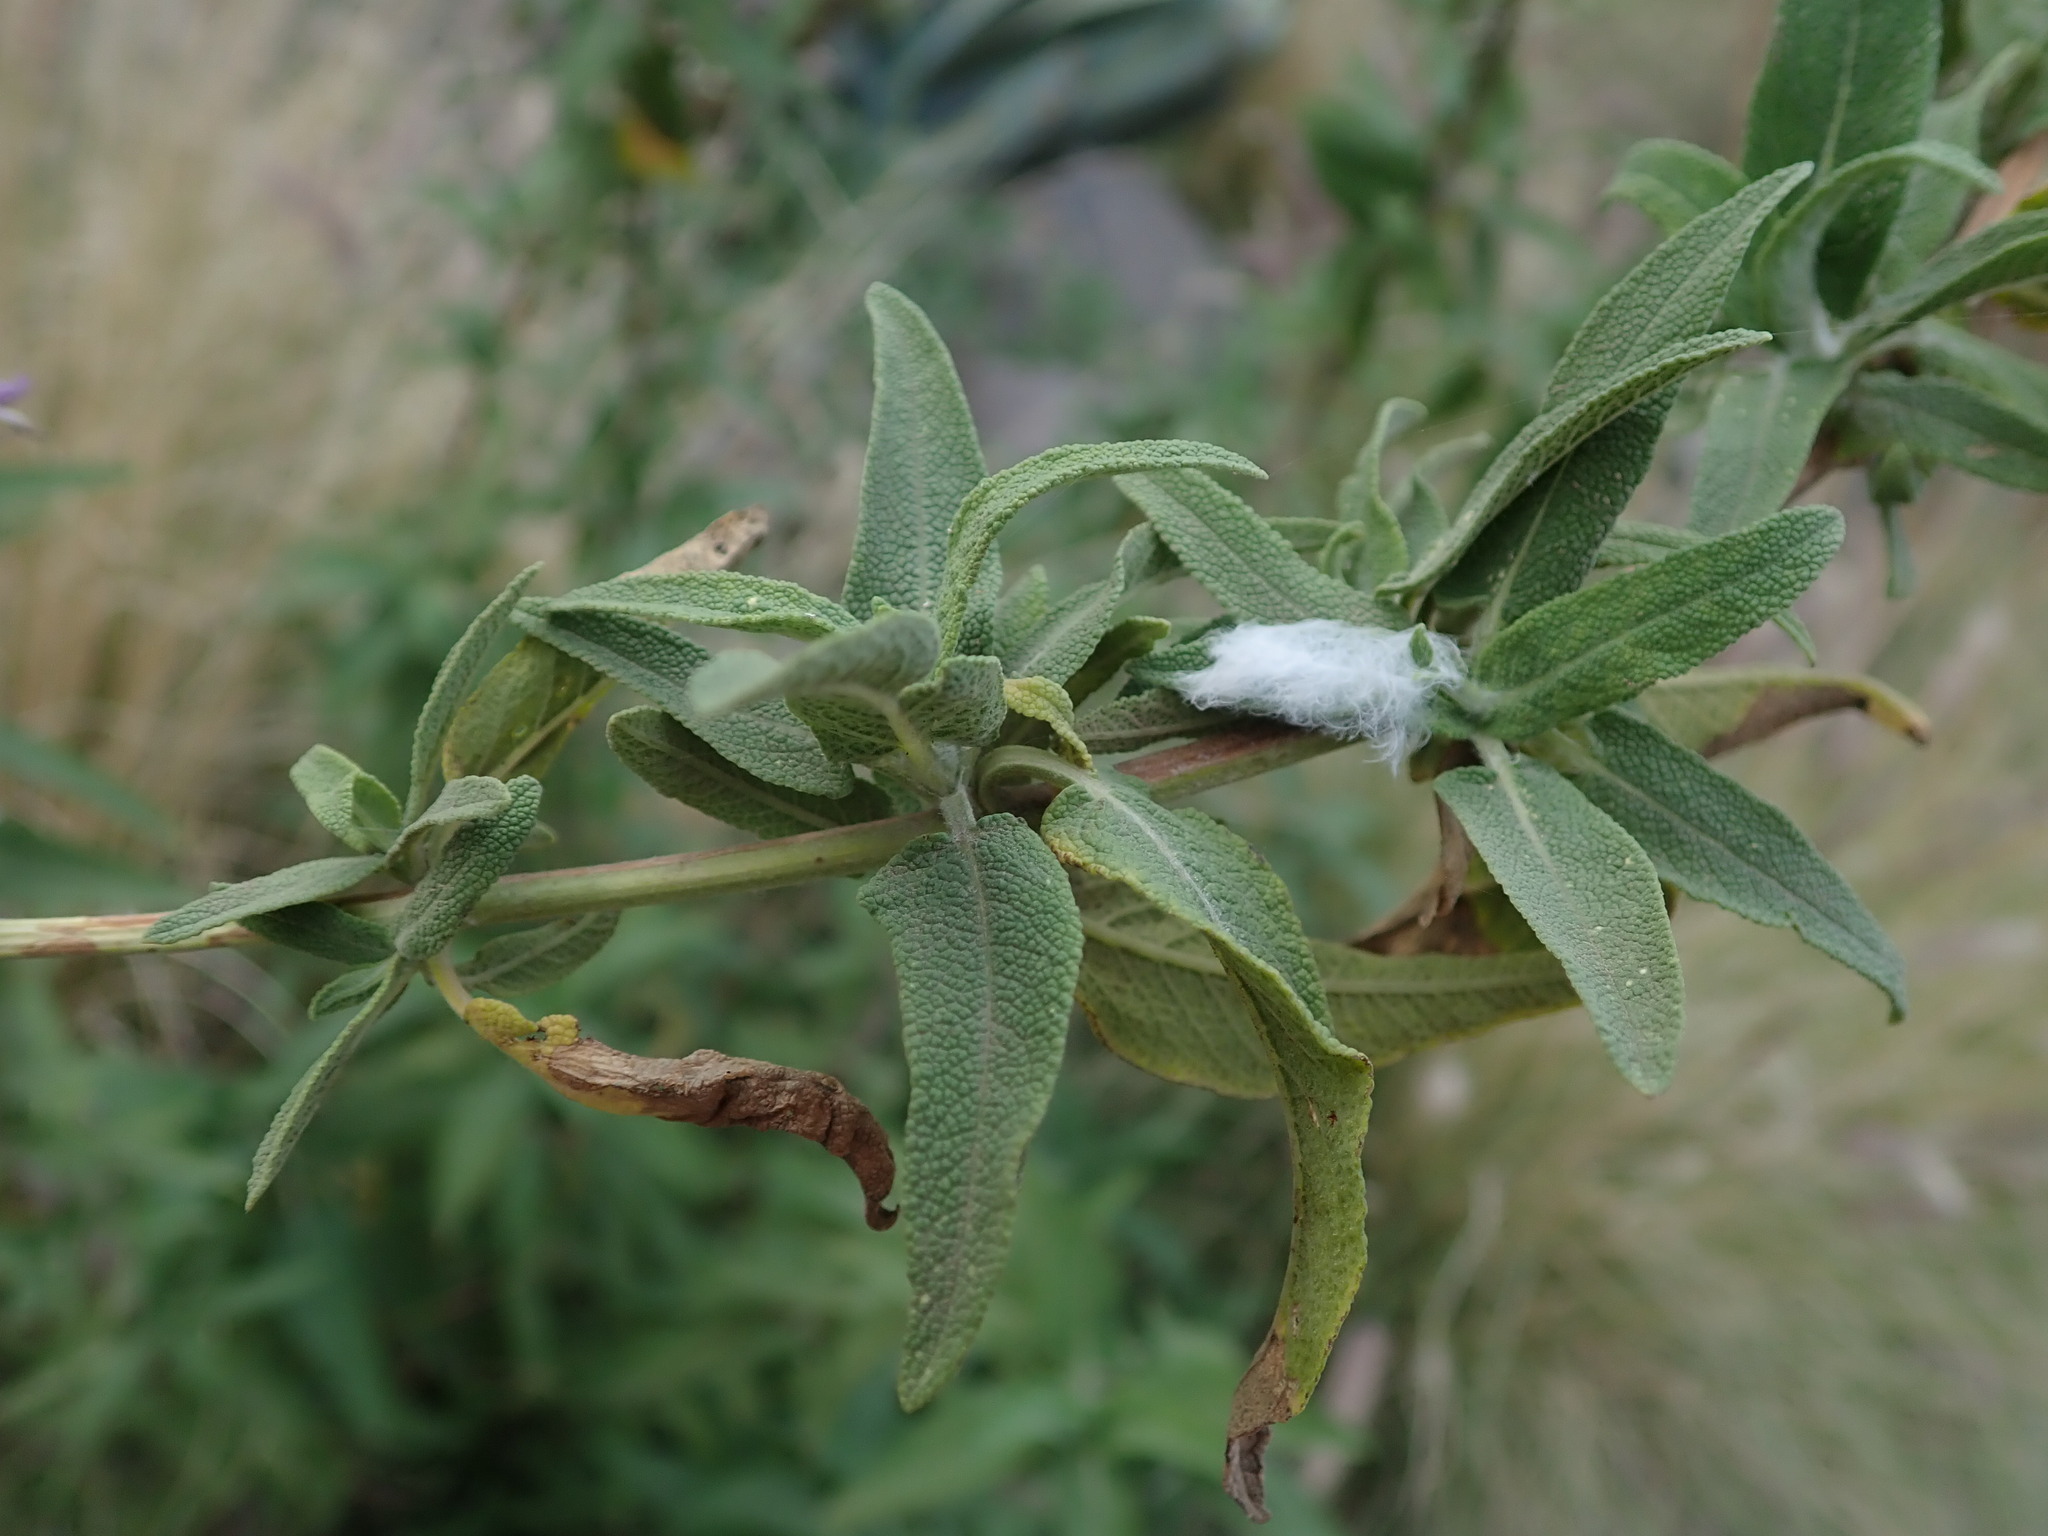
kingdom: Plantae
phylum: Tracheophyta
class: Magnoliopsida
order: Lamiales
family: Lamiaceae
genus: Salvia
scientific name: Salvia canariensis
